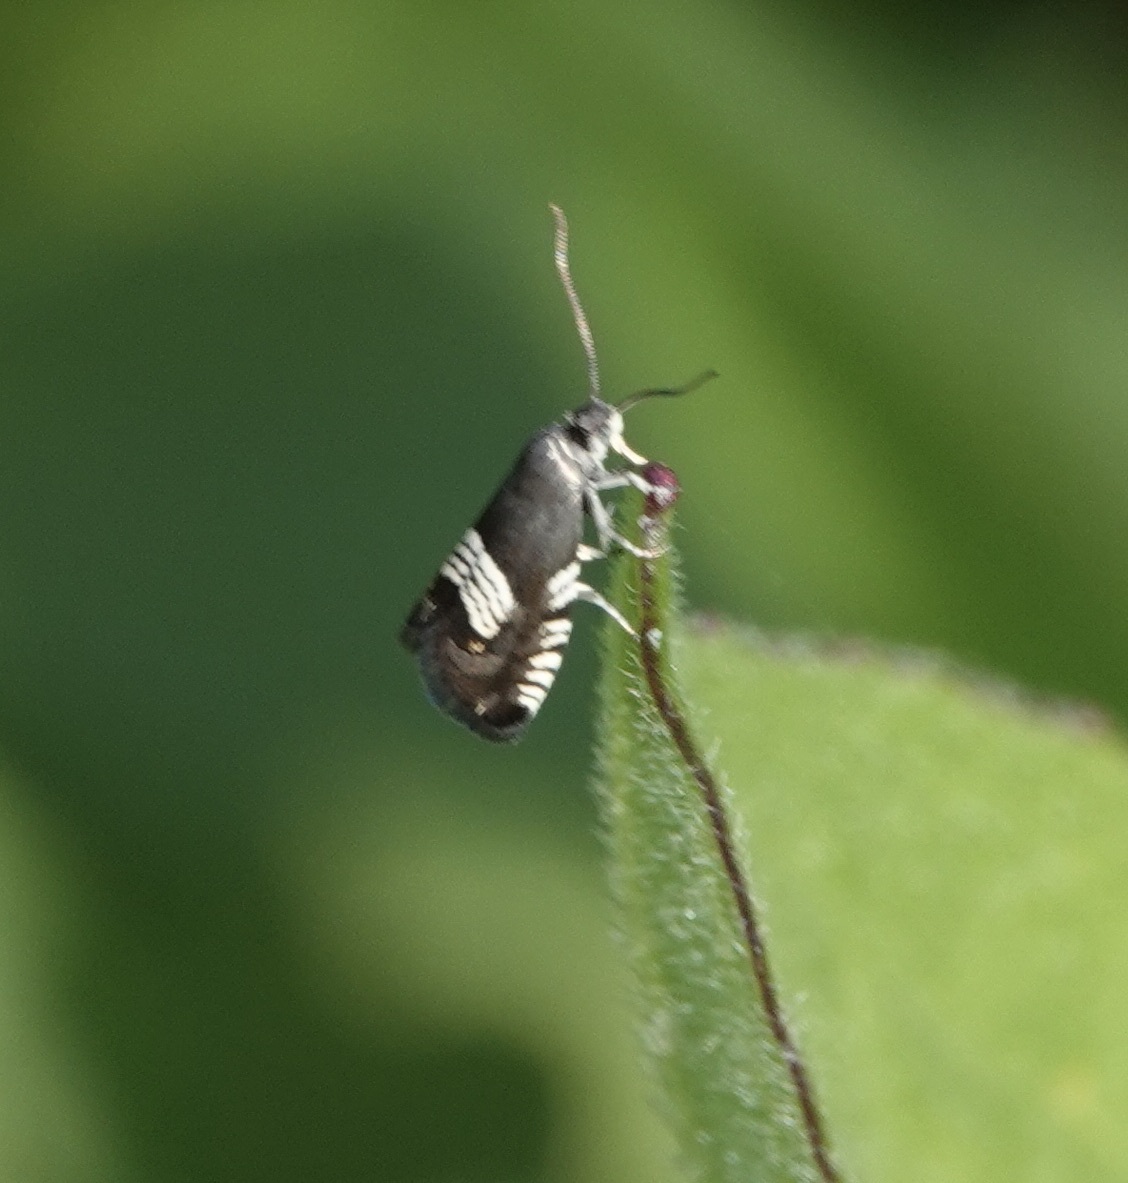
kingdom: Animalia
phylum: Arthropoda
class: Insecta
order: Lepidoptera
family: Tortricidae
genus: Grapholita
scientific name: Grapholita compositella
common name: Triple-stripe piercer
